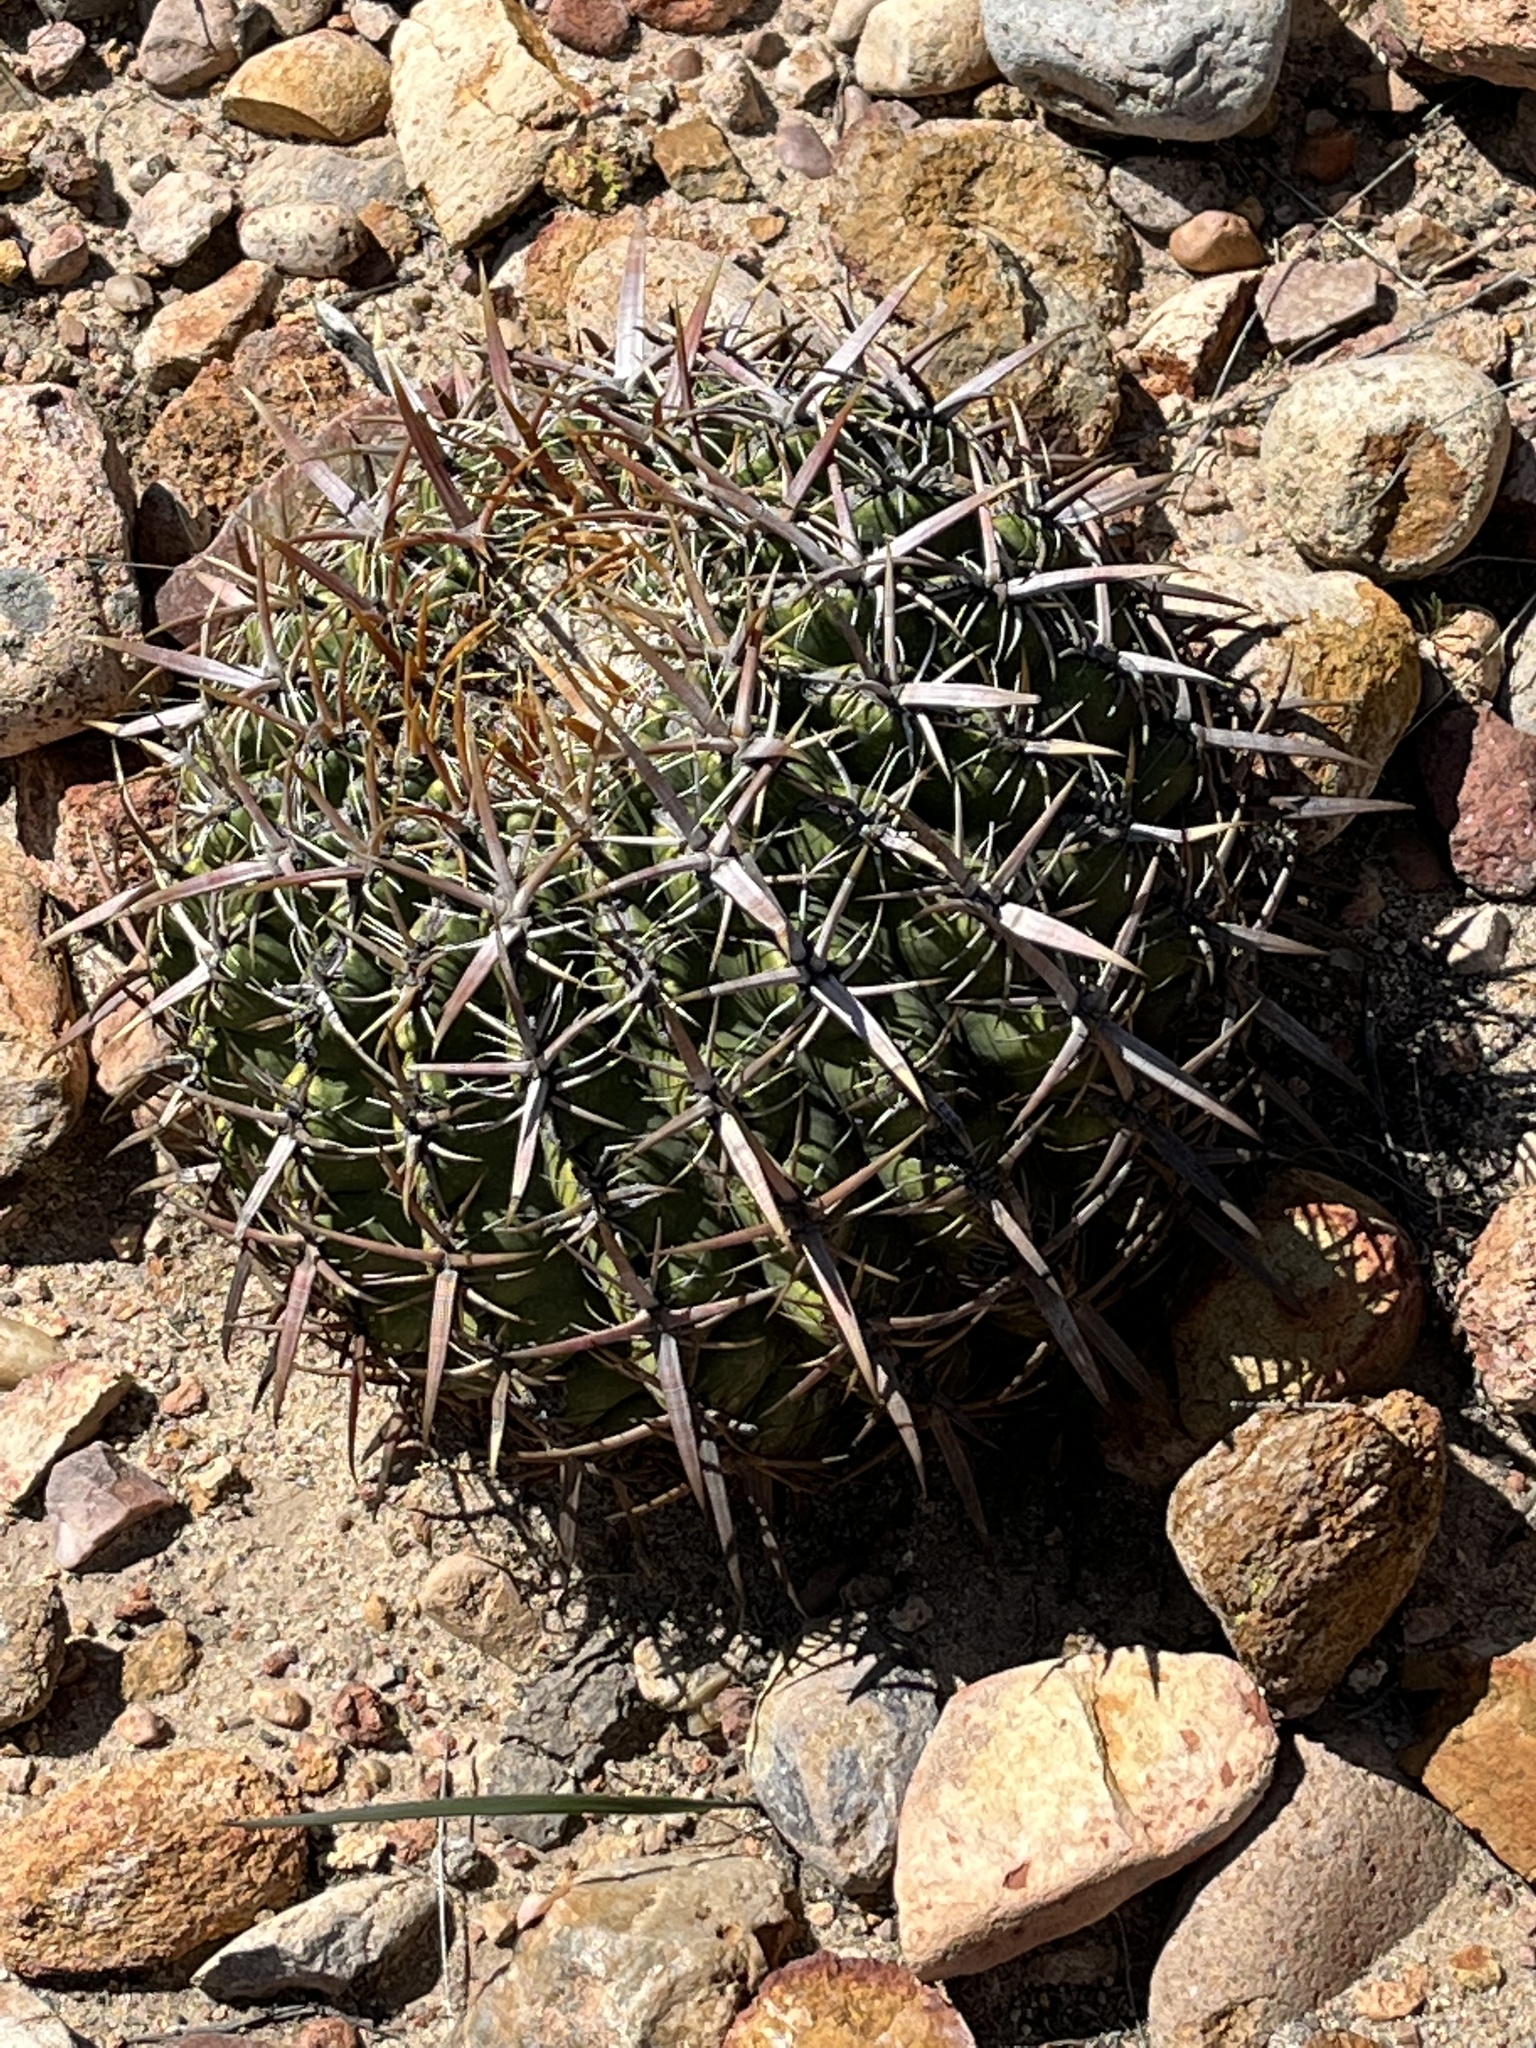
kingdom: Plantae
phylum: Tracheophyta
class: Magnoliopsida
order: Caryophyllales
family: Cactaceae
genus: Ferocactus
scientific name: Ferocactus viridescens
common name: San diego barrel cactus
